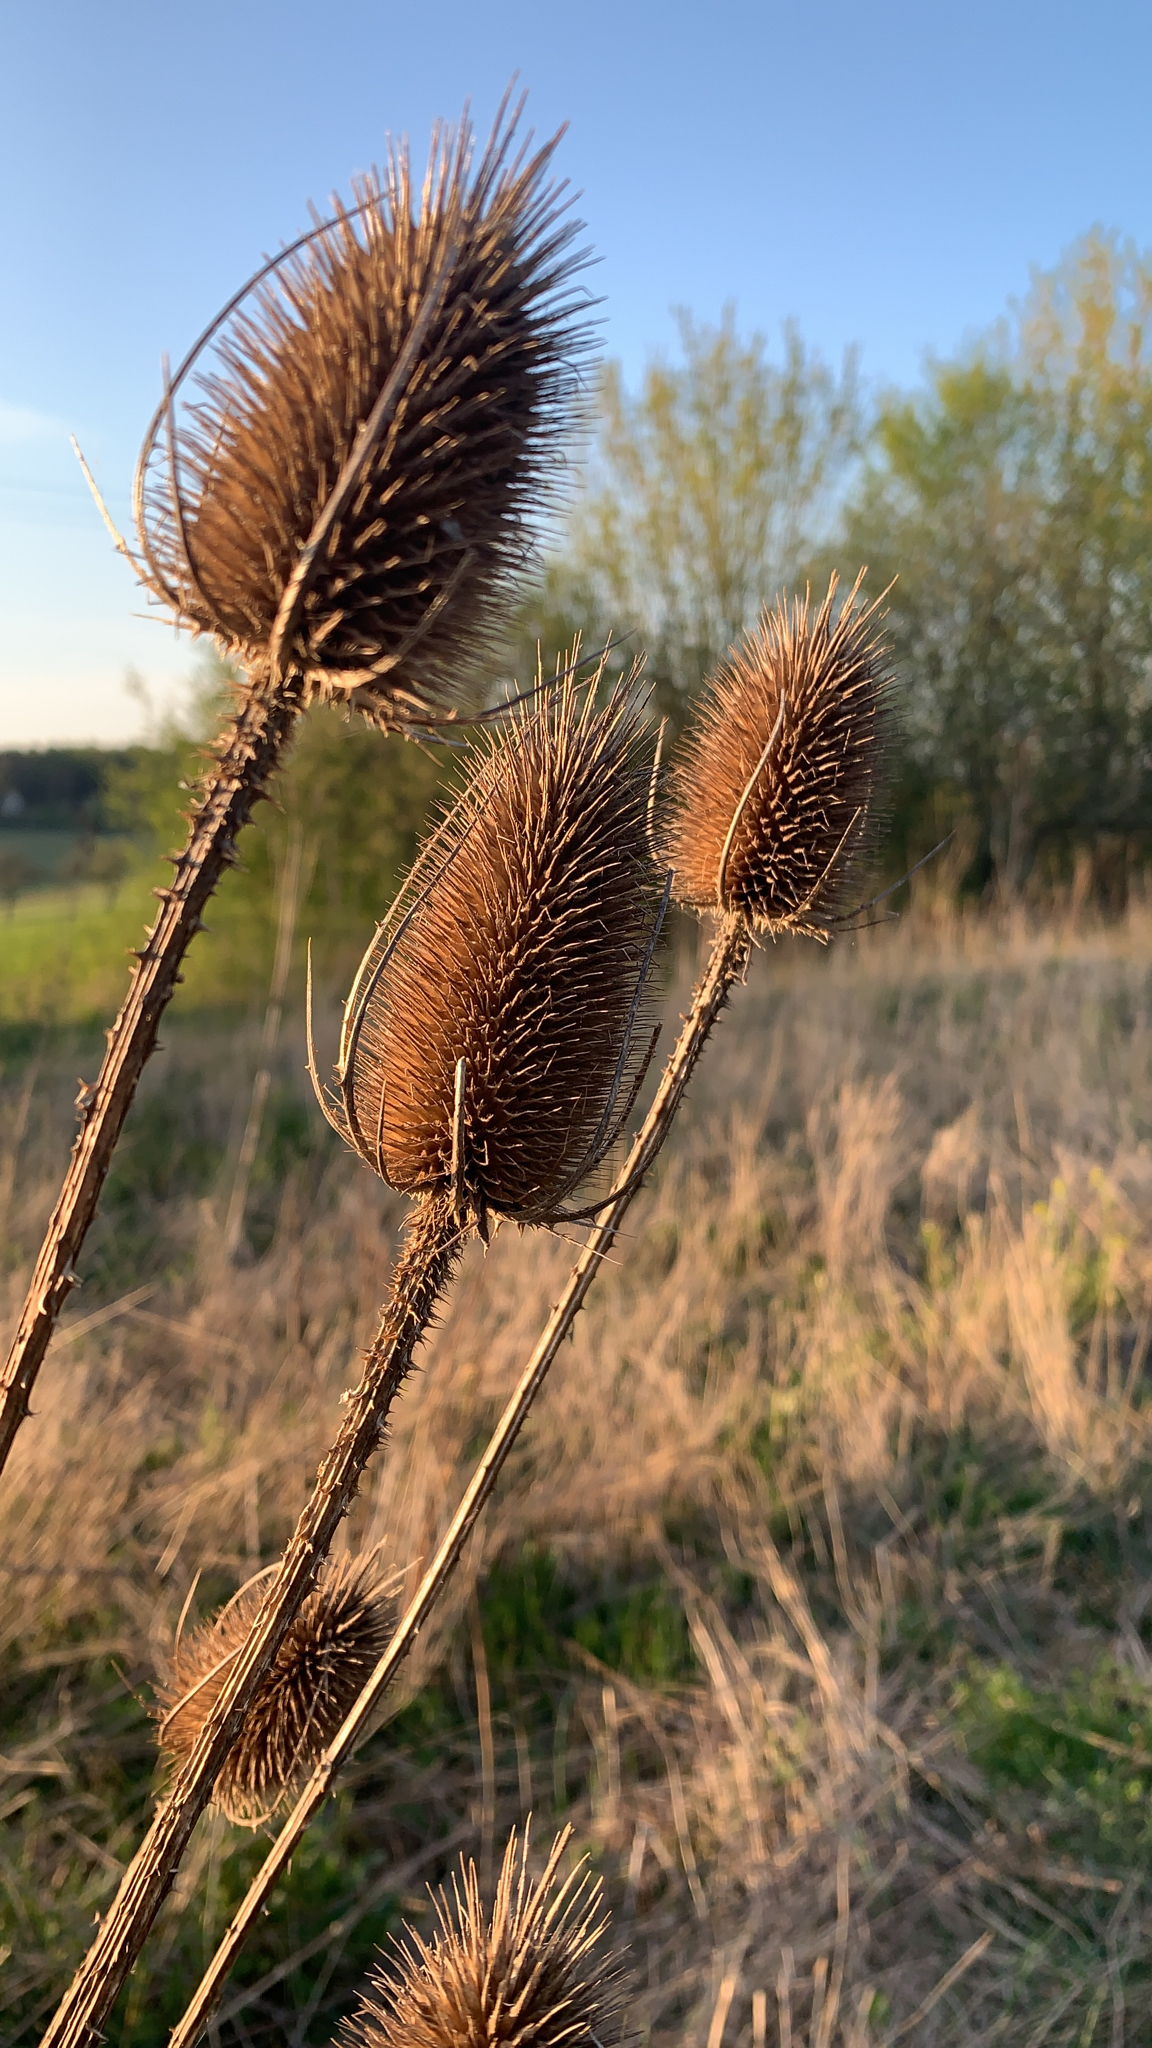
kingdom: Plantae
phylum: Tracheophyta
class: Magnoliopsida
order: Dipsacales
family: Caprifoliaceae
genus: Dipsacus
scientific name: Dipsacus fullonum
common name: Teasel
